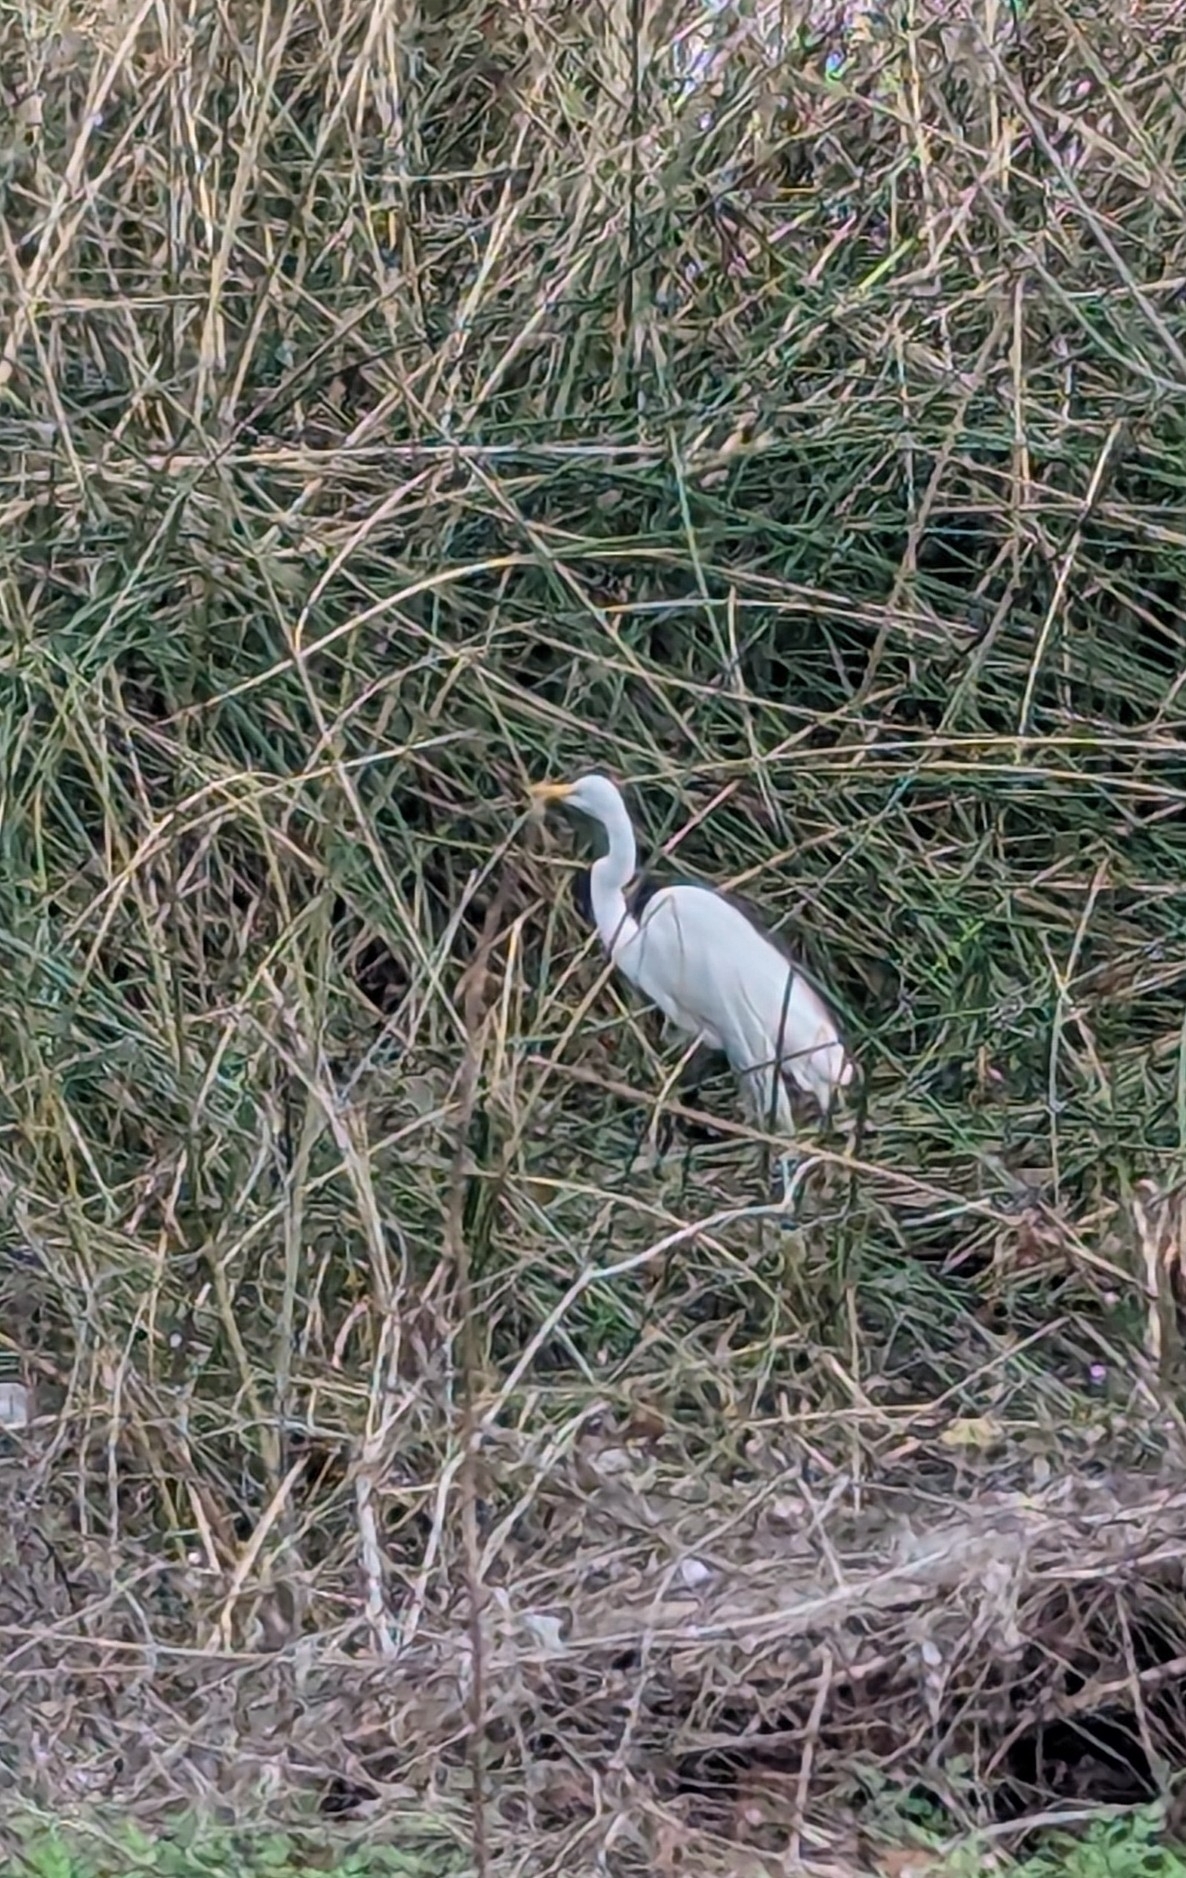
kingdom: Animalia
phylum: Chordata
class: Aves
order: Pelecaniformes
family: Ardeidae
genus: Ardea
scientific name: Ardea alba
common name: Great egret
